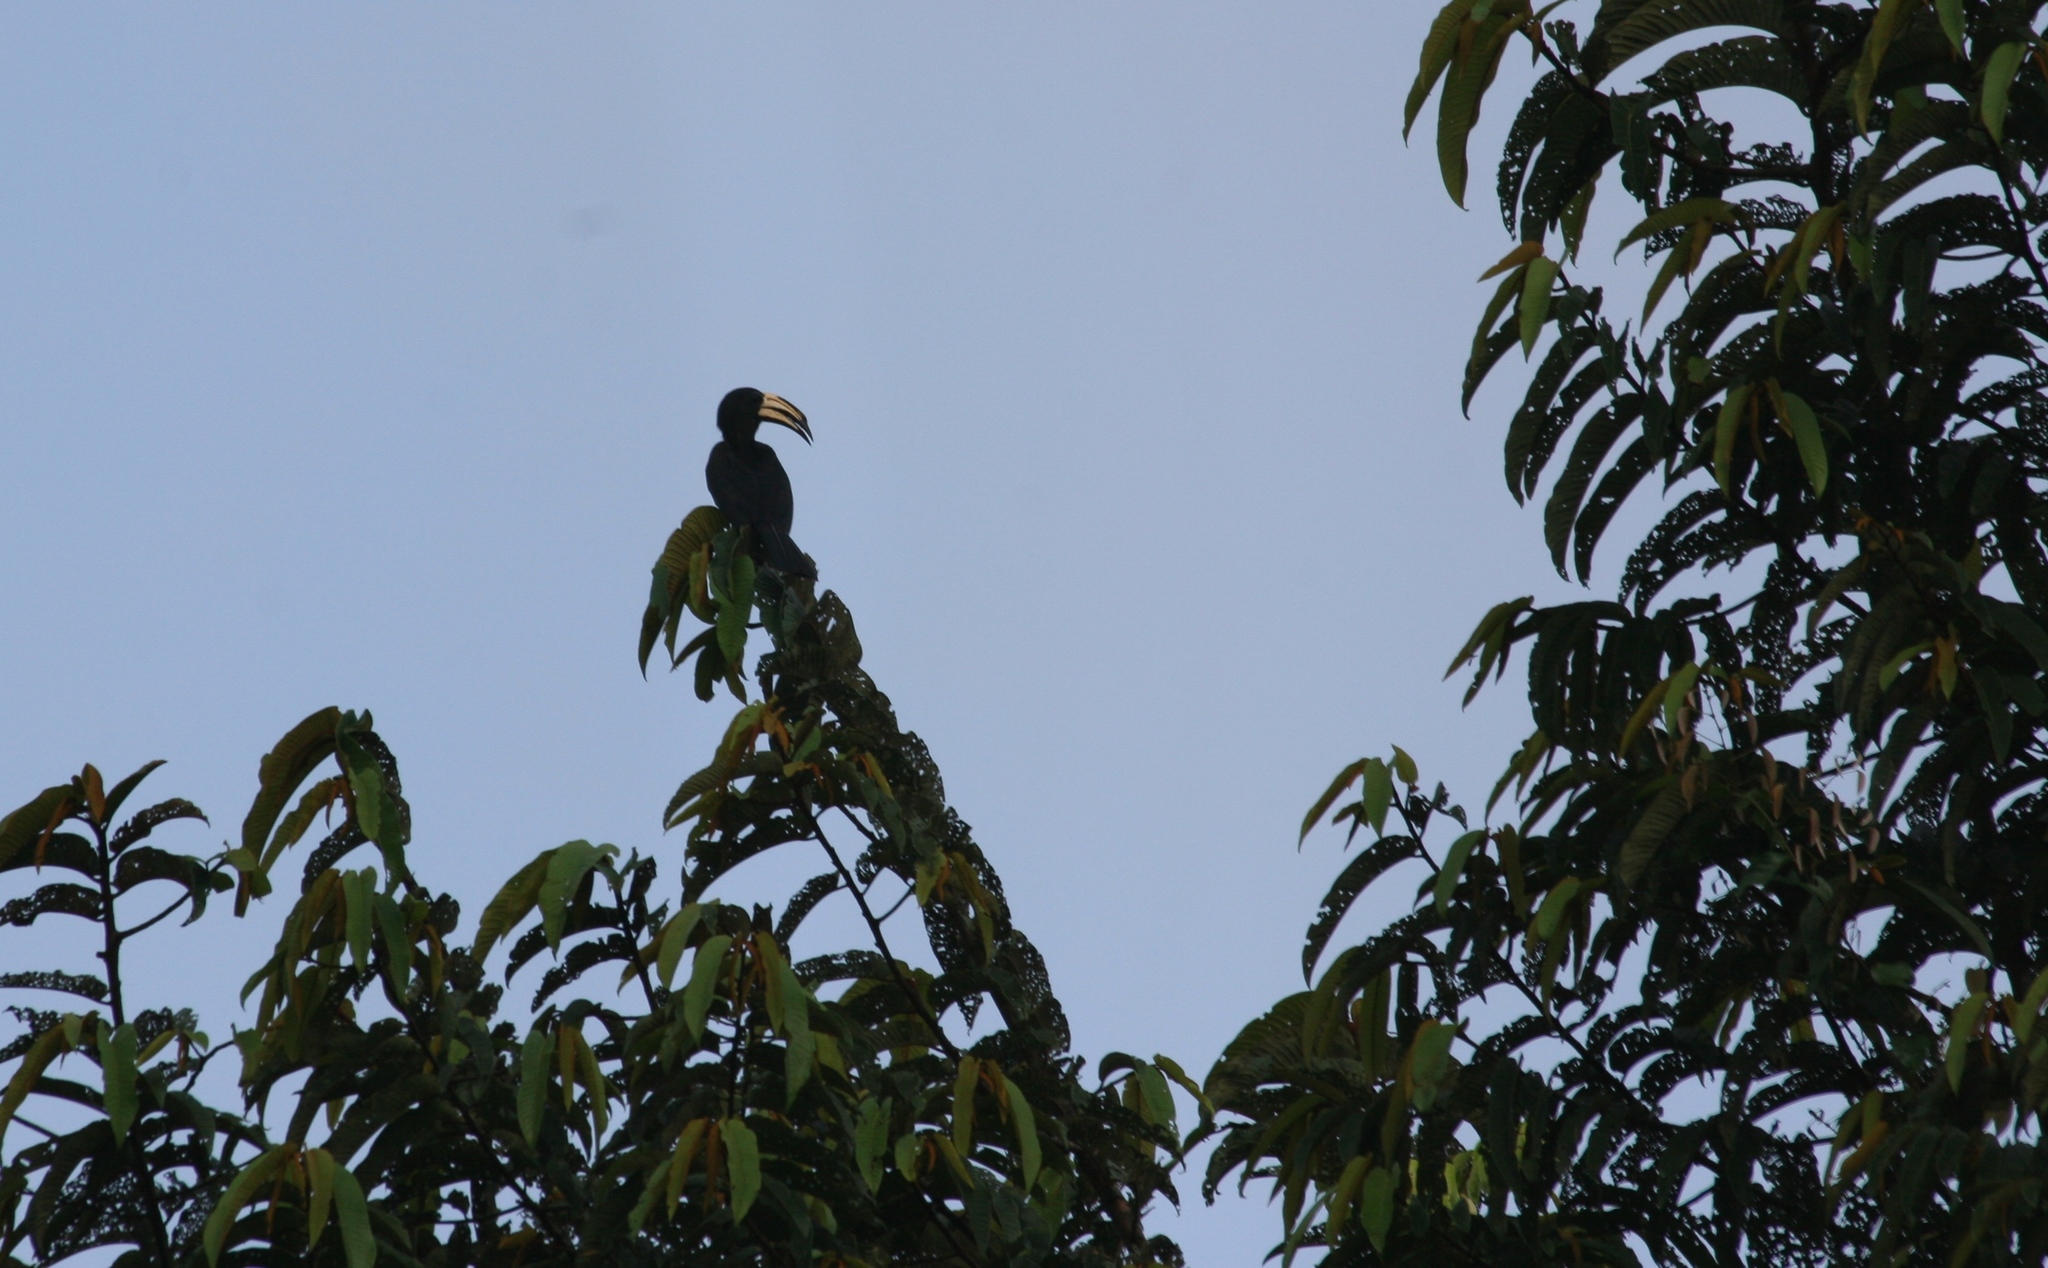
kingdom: Animalia
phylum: Chordata
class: Aves
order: Bucerotiformes
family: Bucerotidae
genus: Lophoceros
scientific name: Lophoceros fasciatus
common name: African pied hornbill
